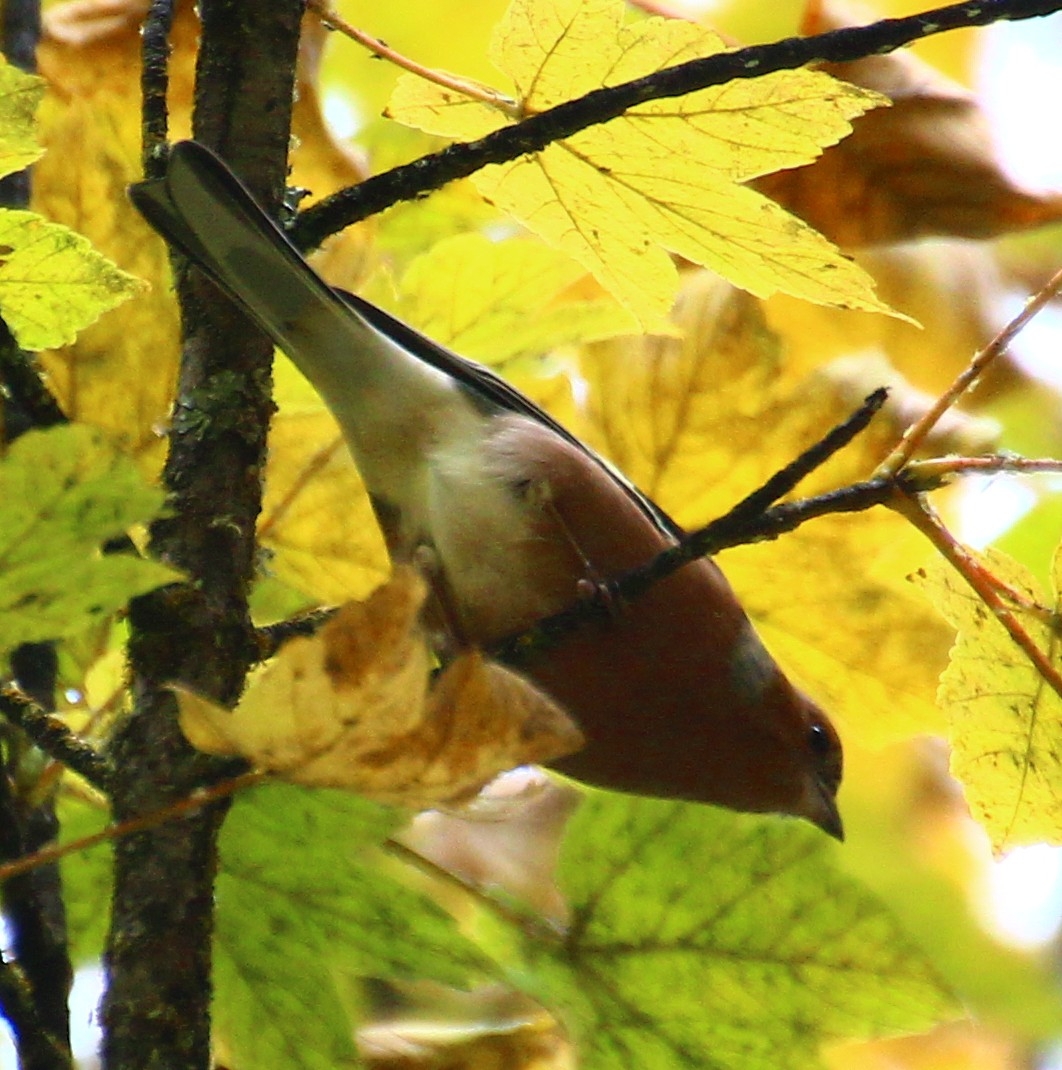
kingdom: Animalia
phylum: Chordata
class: Aves
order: Passeriformes
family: Fringillidae
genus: Fringilla
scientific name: Fringilla coelebs
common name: Common chaffinch
